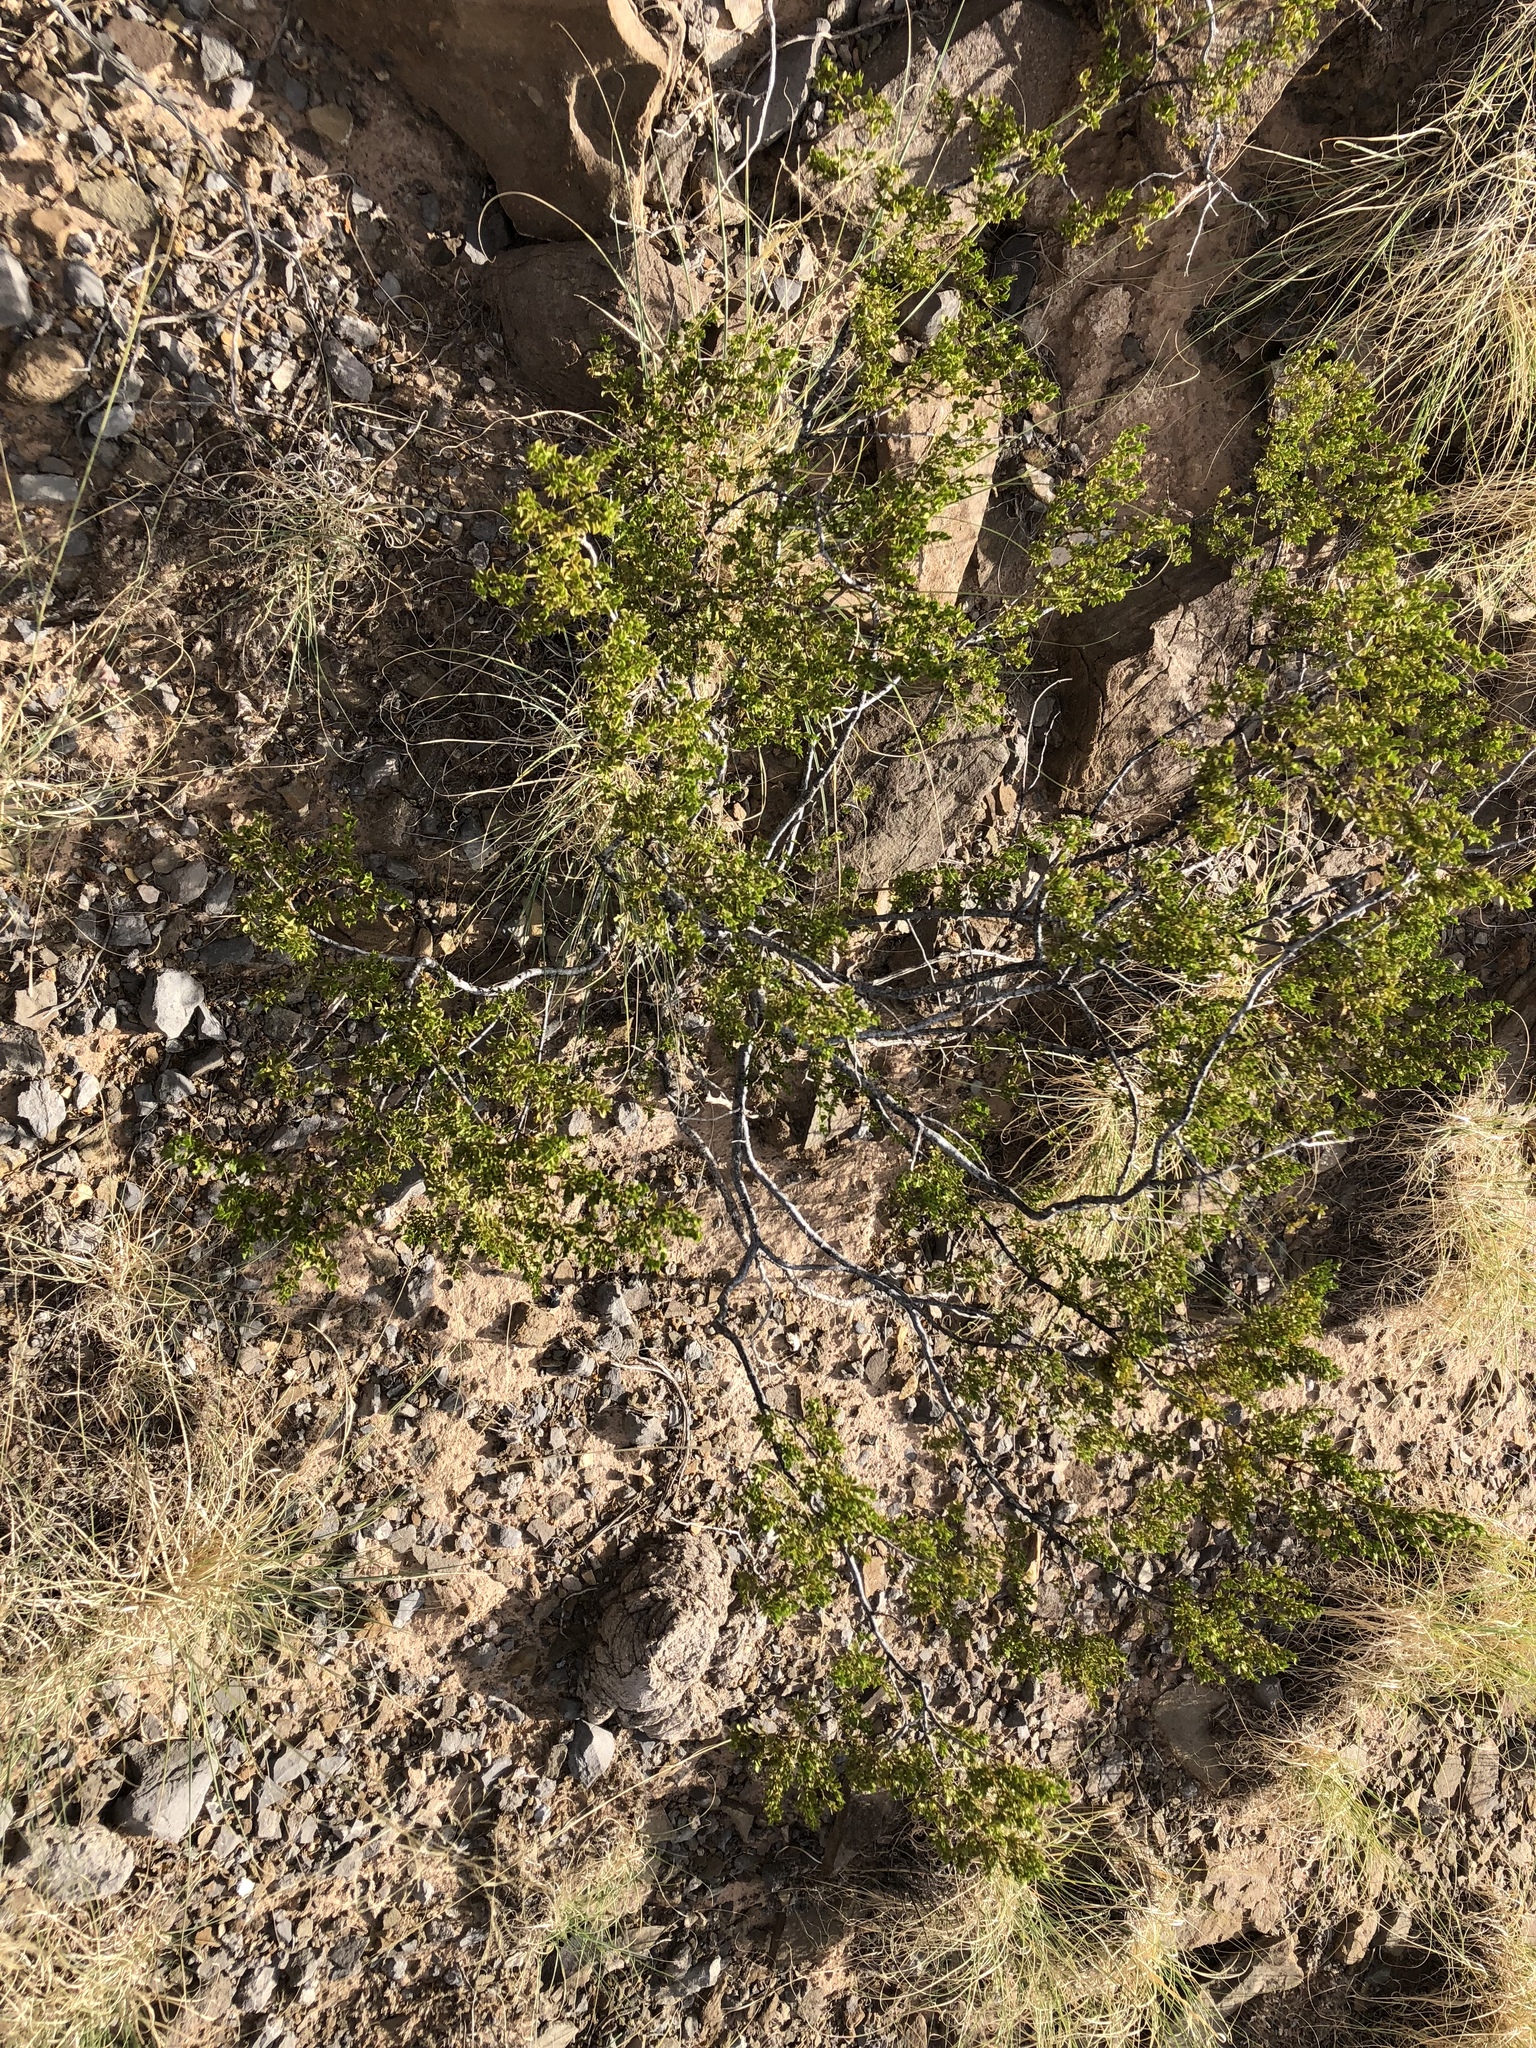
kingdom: Plantae
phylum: Tracheophyta
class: Magnoliopsida
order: Zygophyllales
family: Zygophyllaceae
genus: Larrea
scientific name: Larrea tridentata
